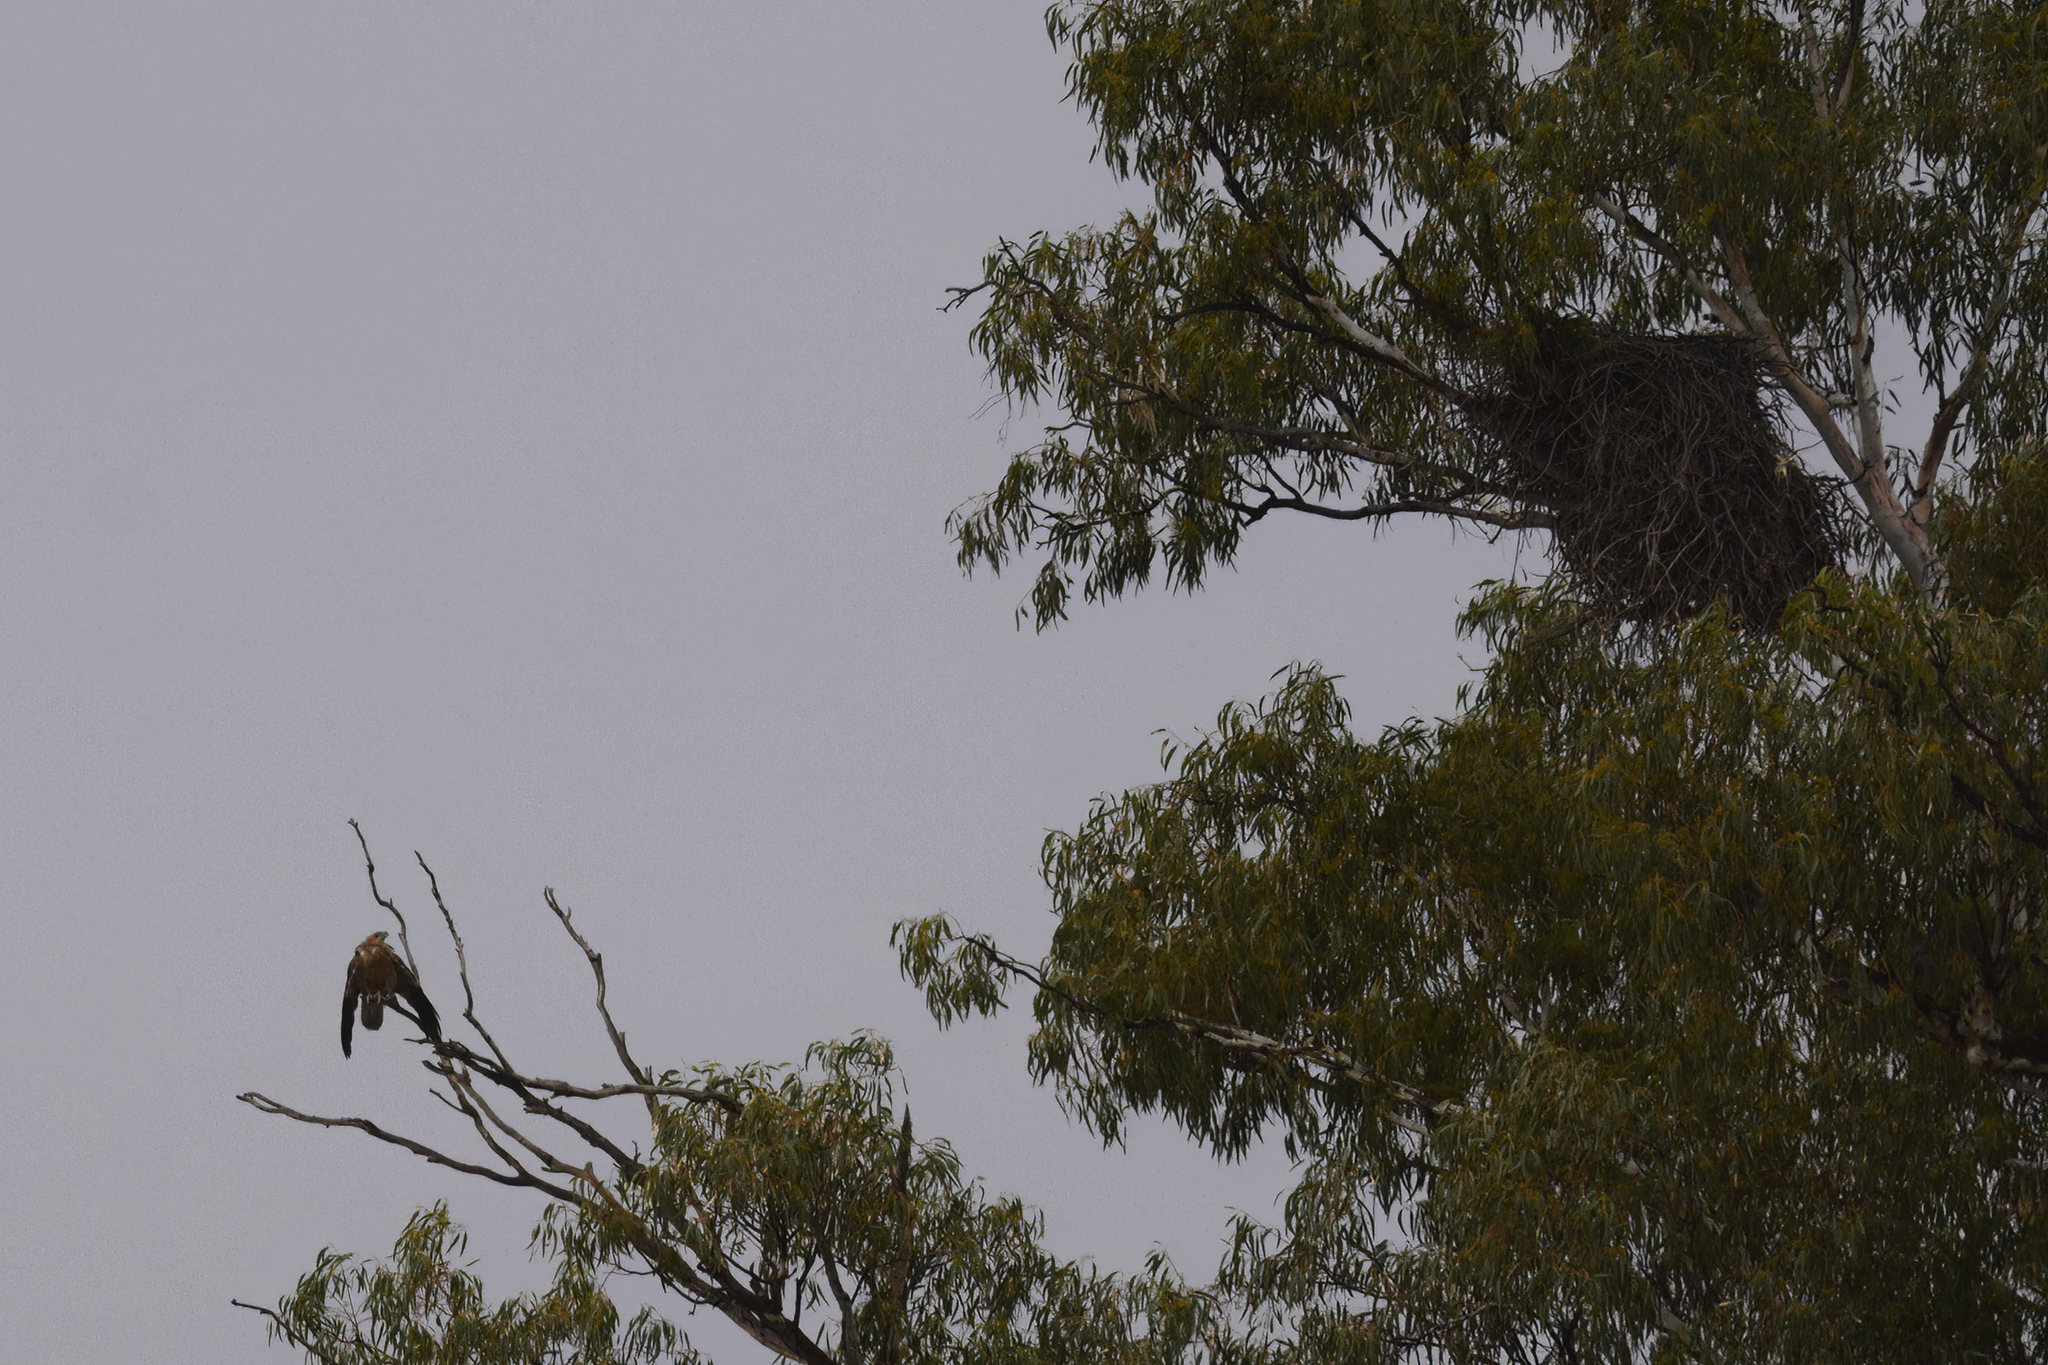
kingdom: Animalia
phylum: Chordata
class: Aves
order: Accipitriformes
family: Accipitridae
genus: Haliastur
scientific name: Haliastur sphenurus
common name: Whistling kite
